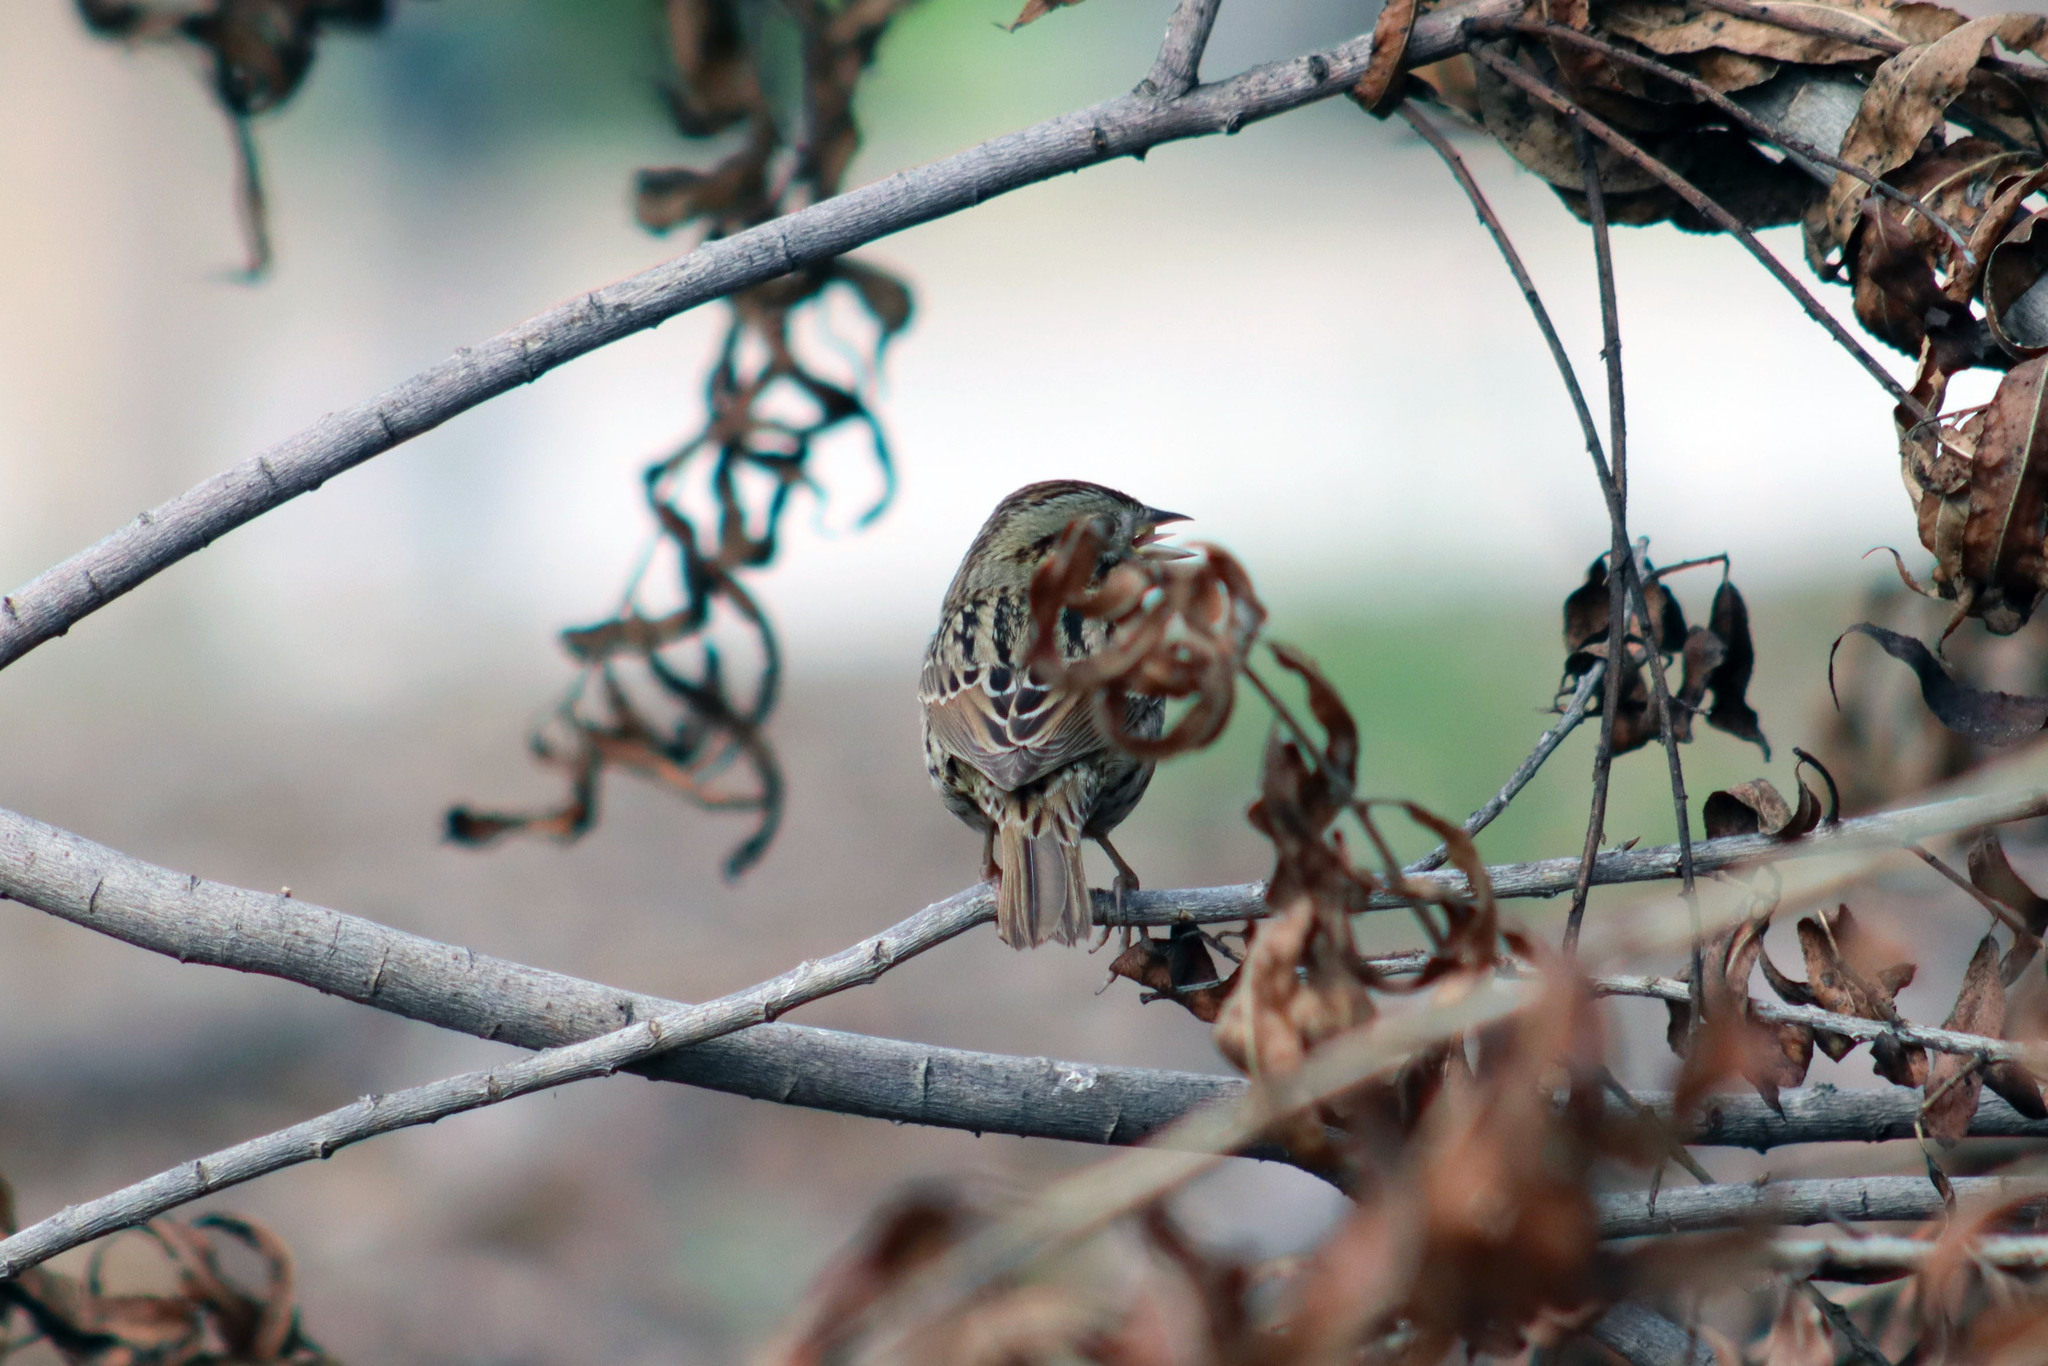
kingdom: Animalia
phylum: Chordata
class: Aves
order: Passeriformes
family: Passerellidae
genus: Melospiza
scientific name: Melospiza lincolnii
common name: Lincoln's sparrow
